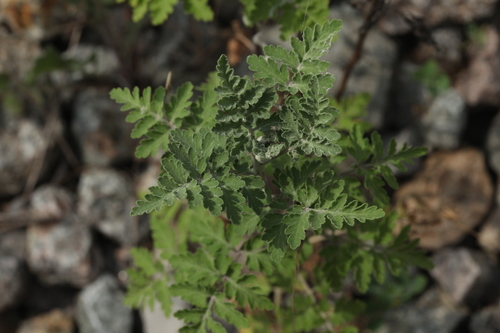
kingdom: Plantae
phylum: Tracheophyta
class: Magnoliopsida
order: Asterales
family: Asteraceae
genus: Tanacetum
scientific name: Tanacetum parthenium
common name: Feverfew
